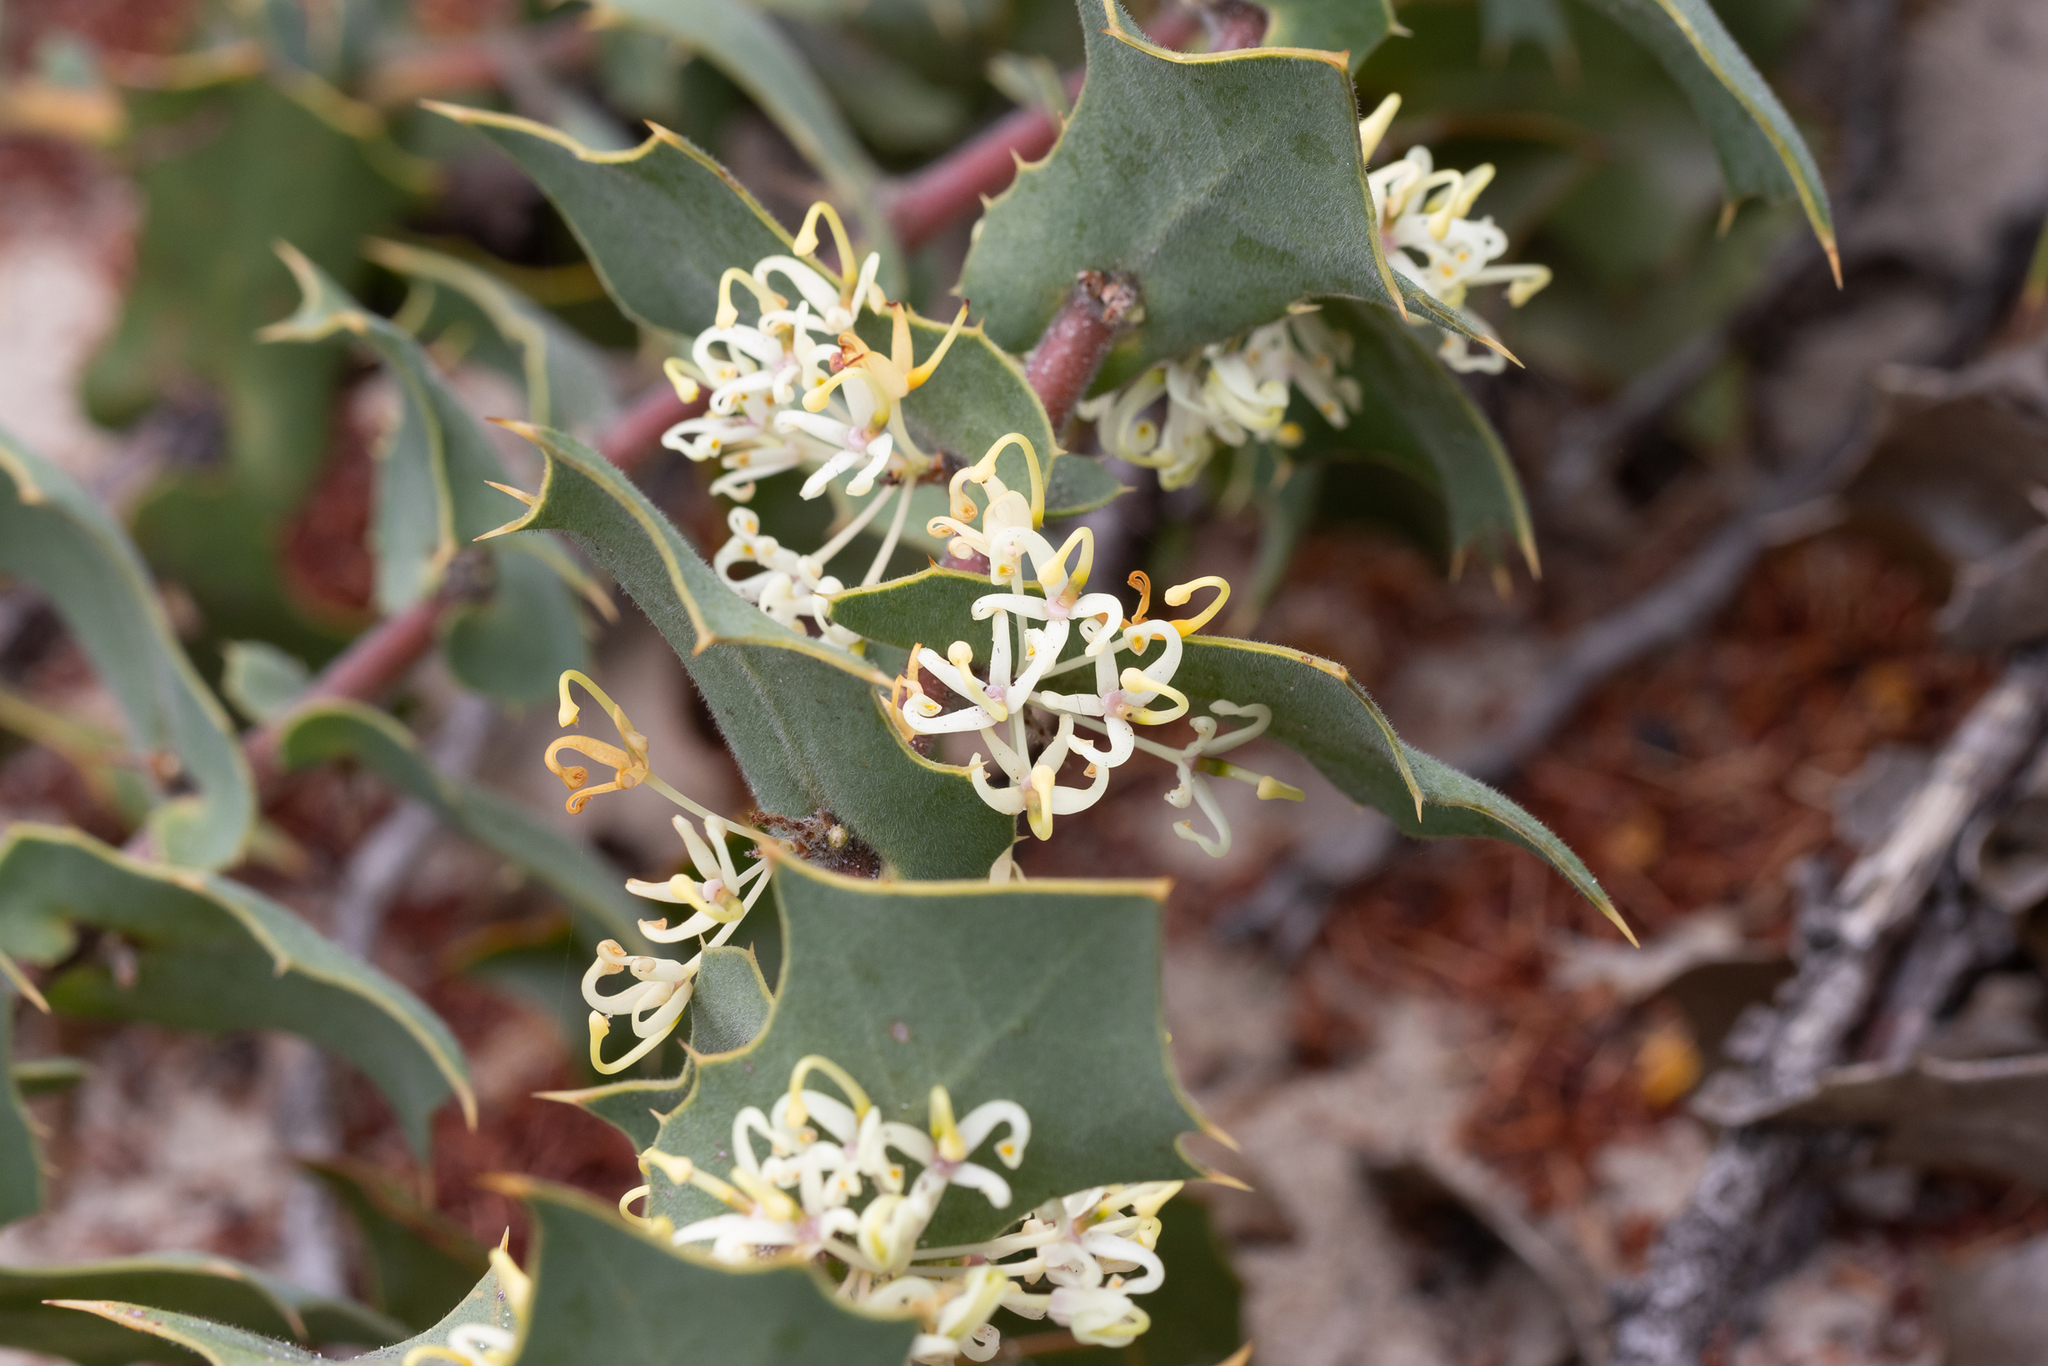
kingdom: Plantae
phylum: Tracheophyta
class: Magnoliopsida
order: Proteales
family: Proteaceae
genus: Hakea
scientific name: Hakea prostrata
